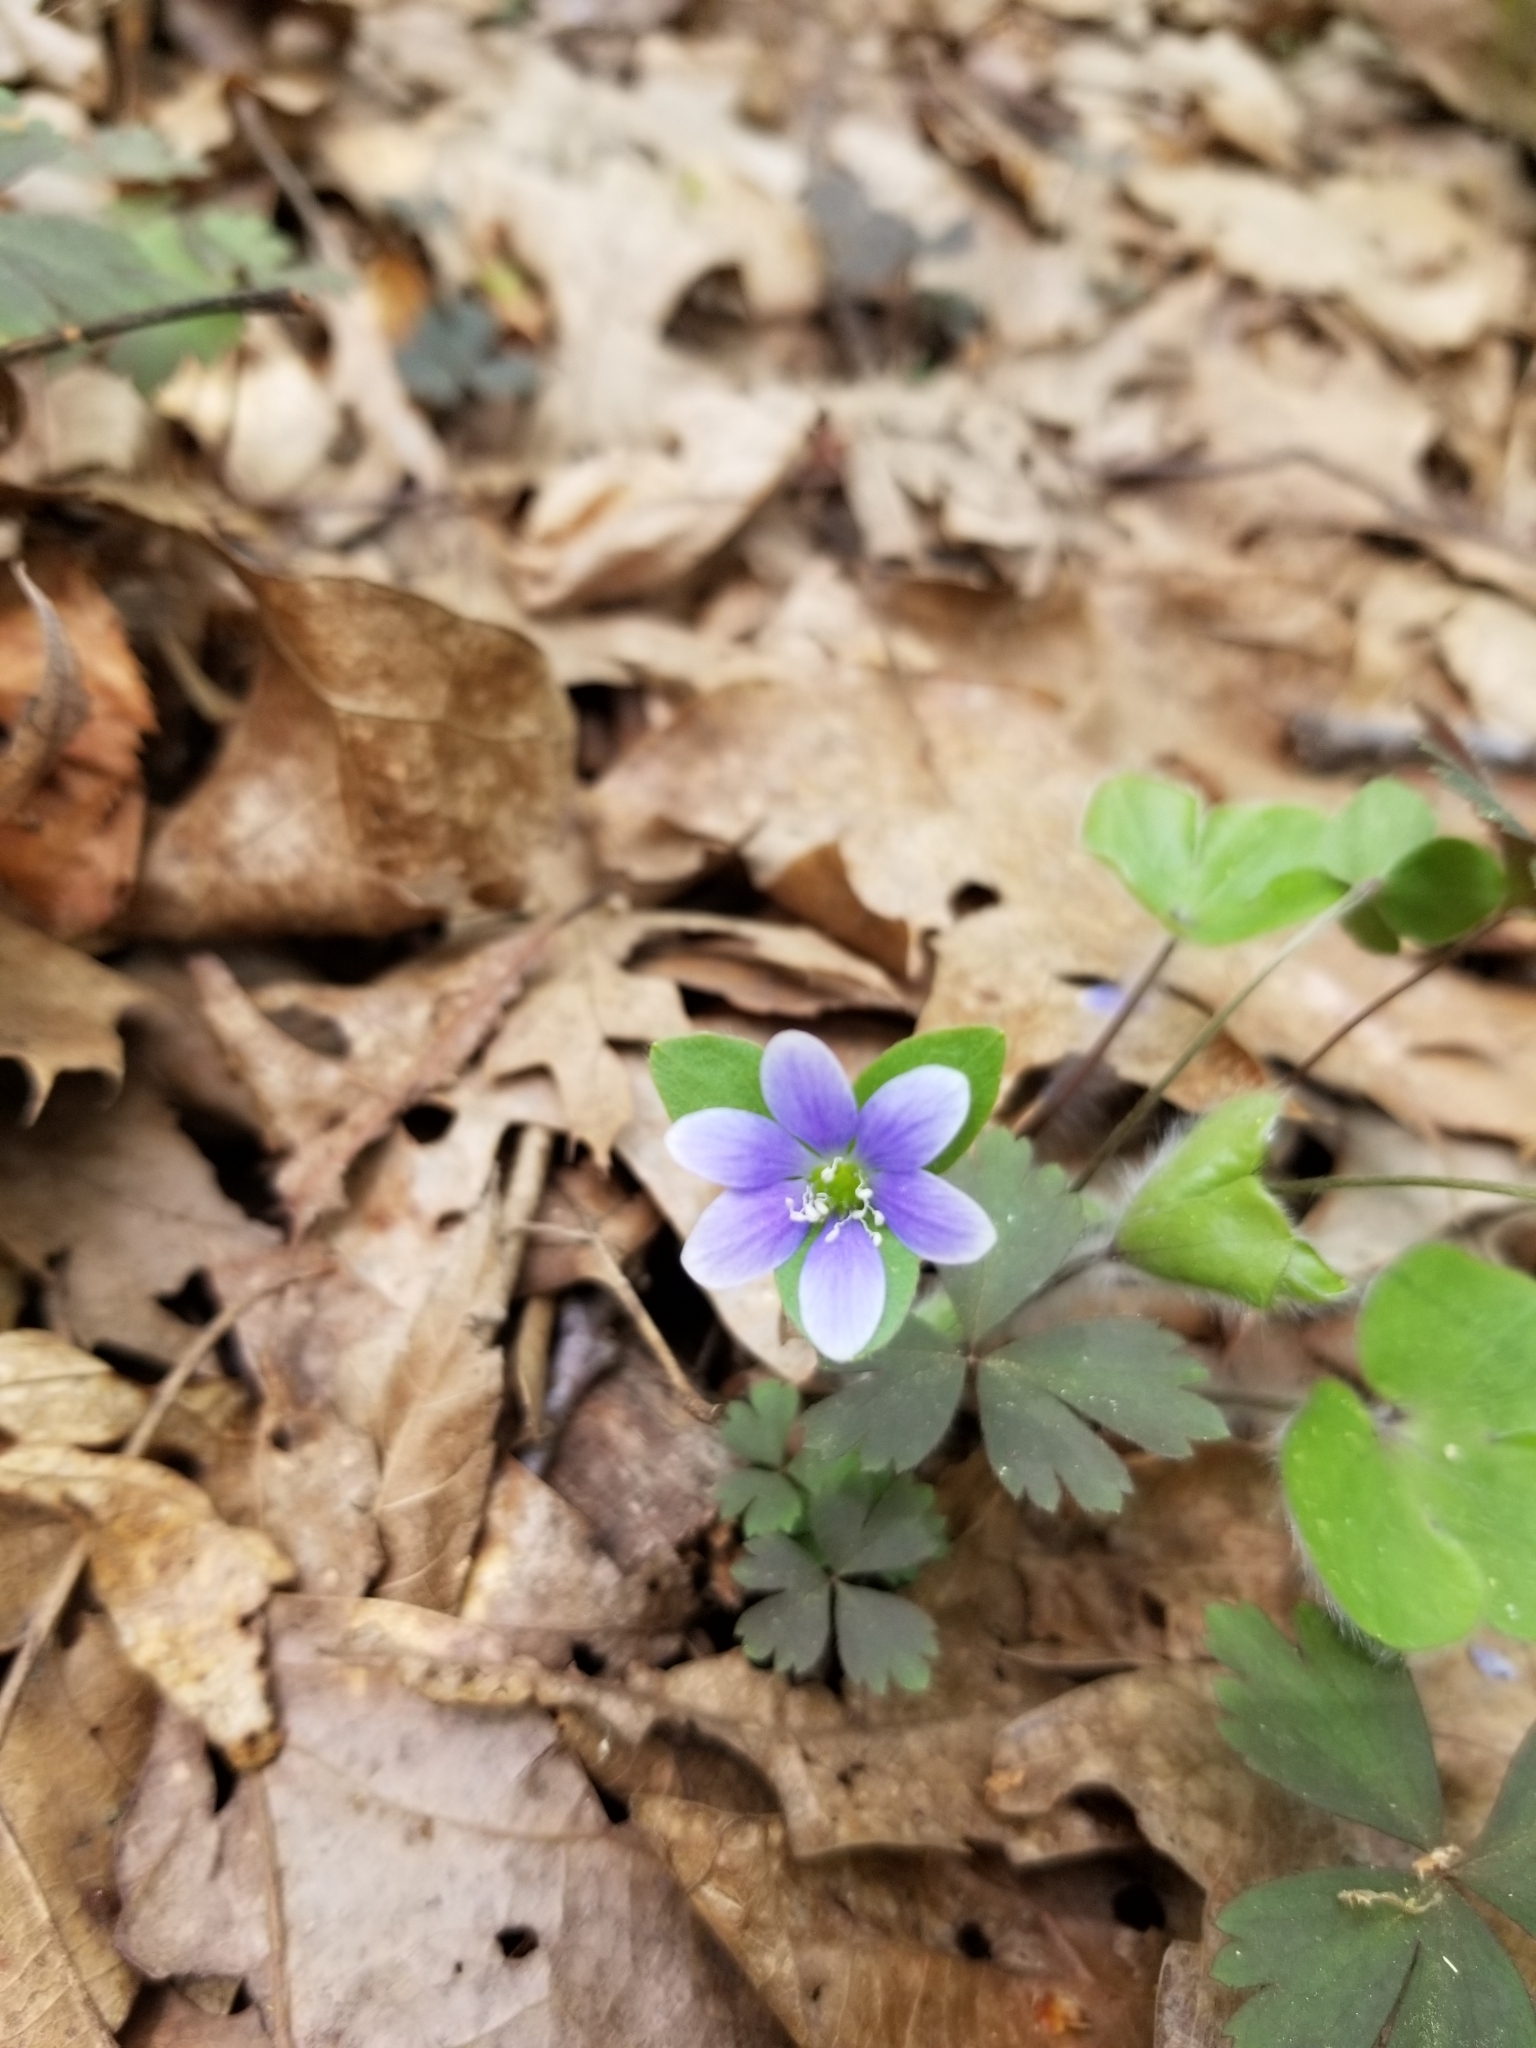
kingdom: Plantae
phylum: Tracheophyta
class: Magnoliopsida
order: Ranunculales
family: Ranunculaceae
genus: Hepatica
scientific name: Hepatica americana
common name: American hepatica
